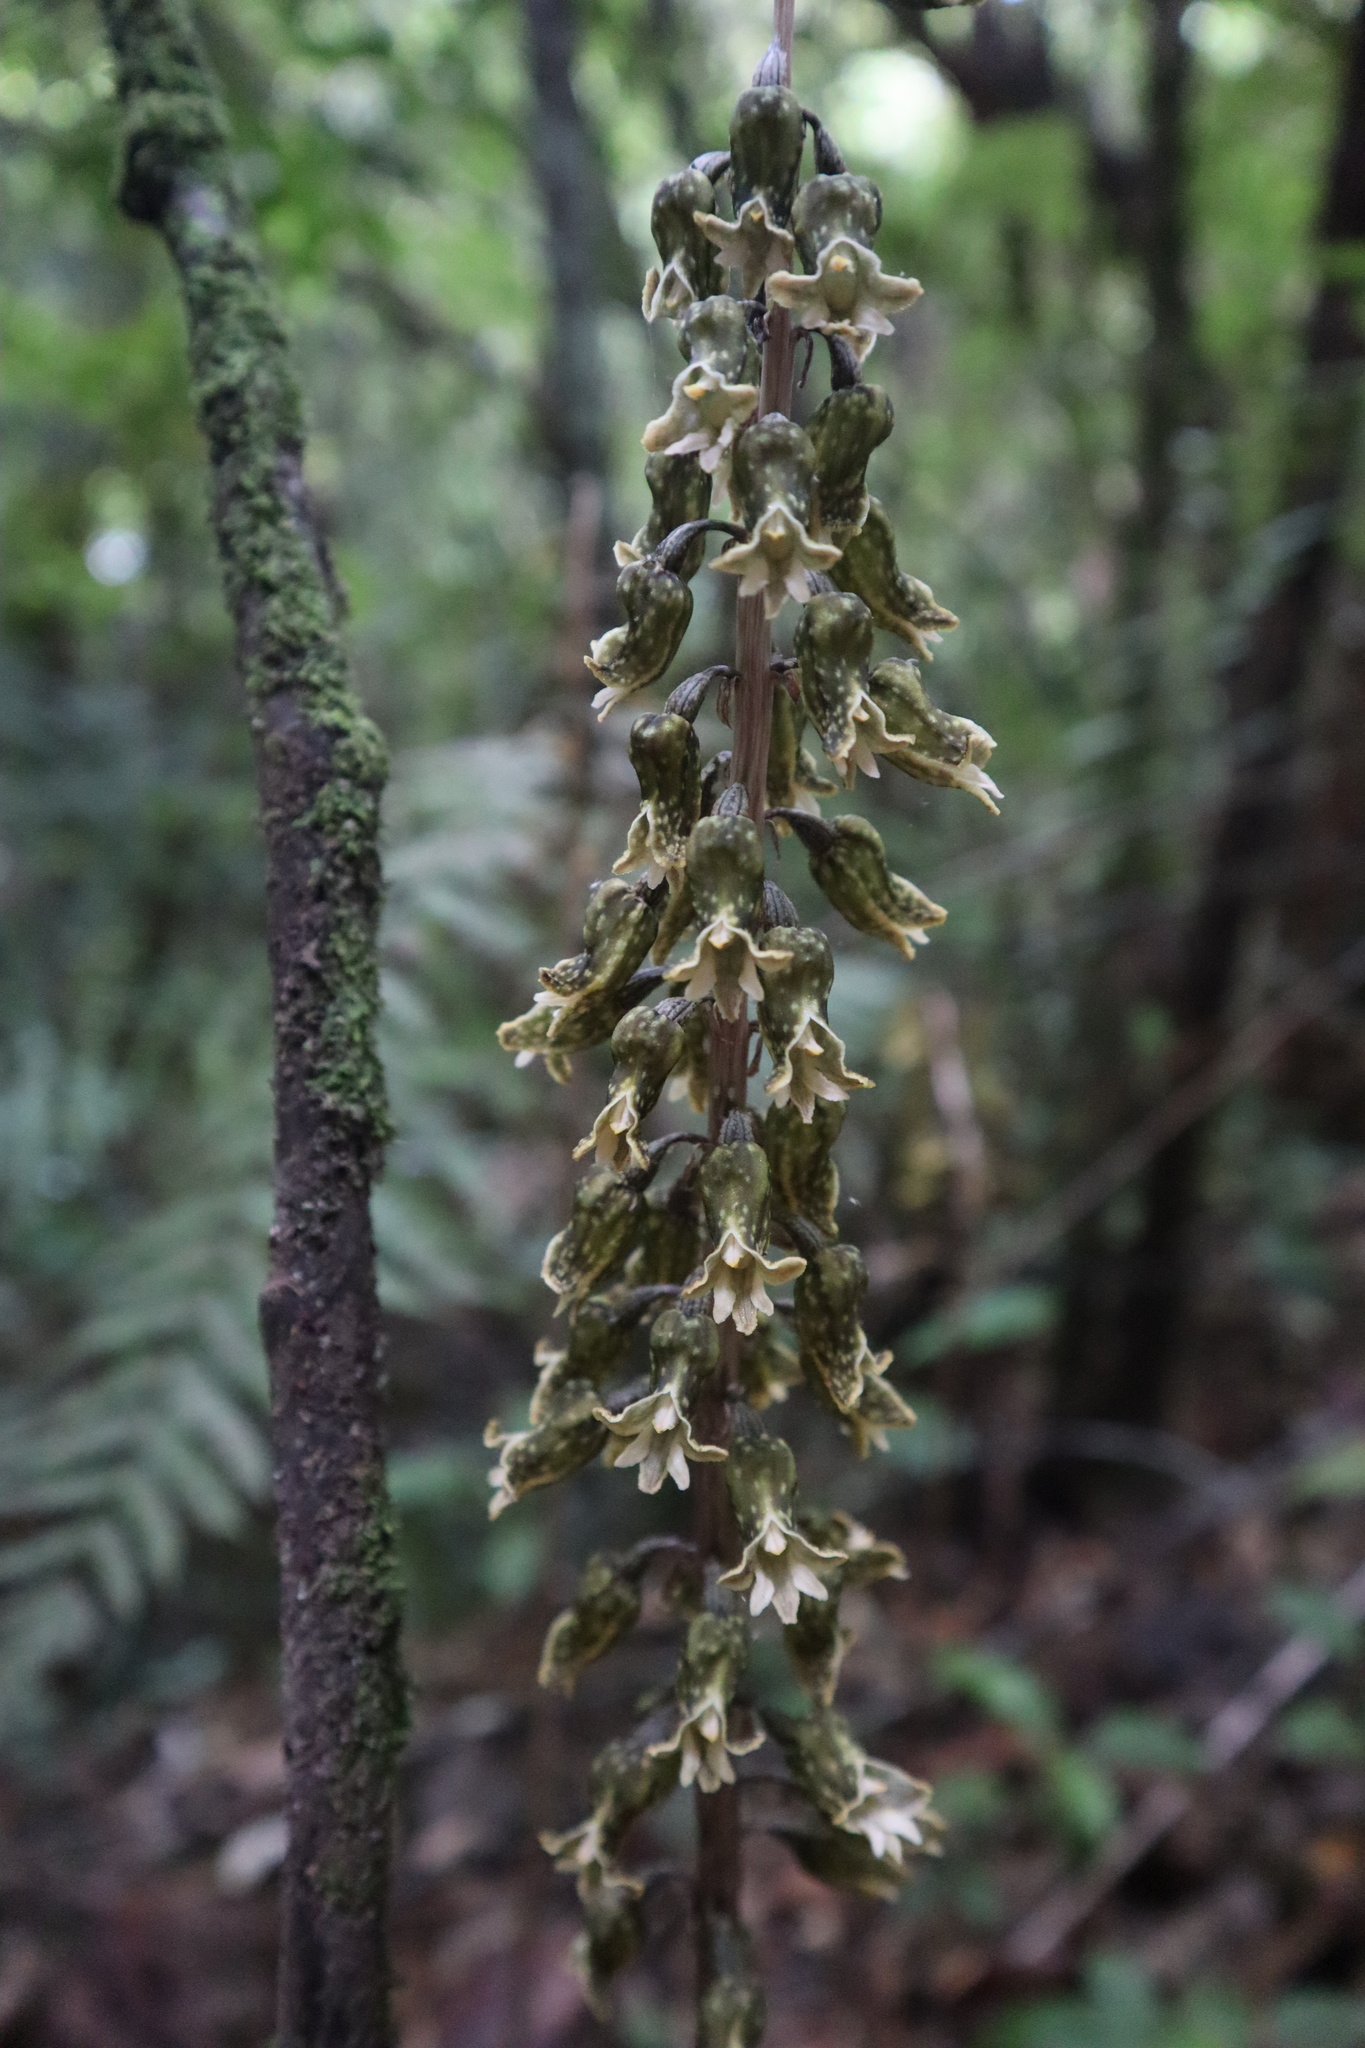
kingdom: Plantae
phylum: Tracheophyta
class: Liliopsida
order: Asparagales
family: Orchidaceae
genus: Gastrodia
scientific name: Gastrodia molloyi
